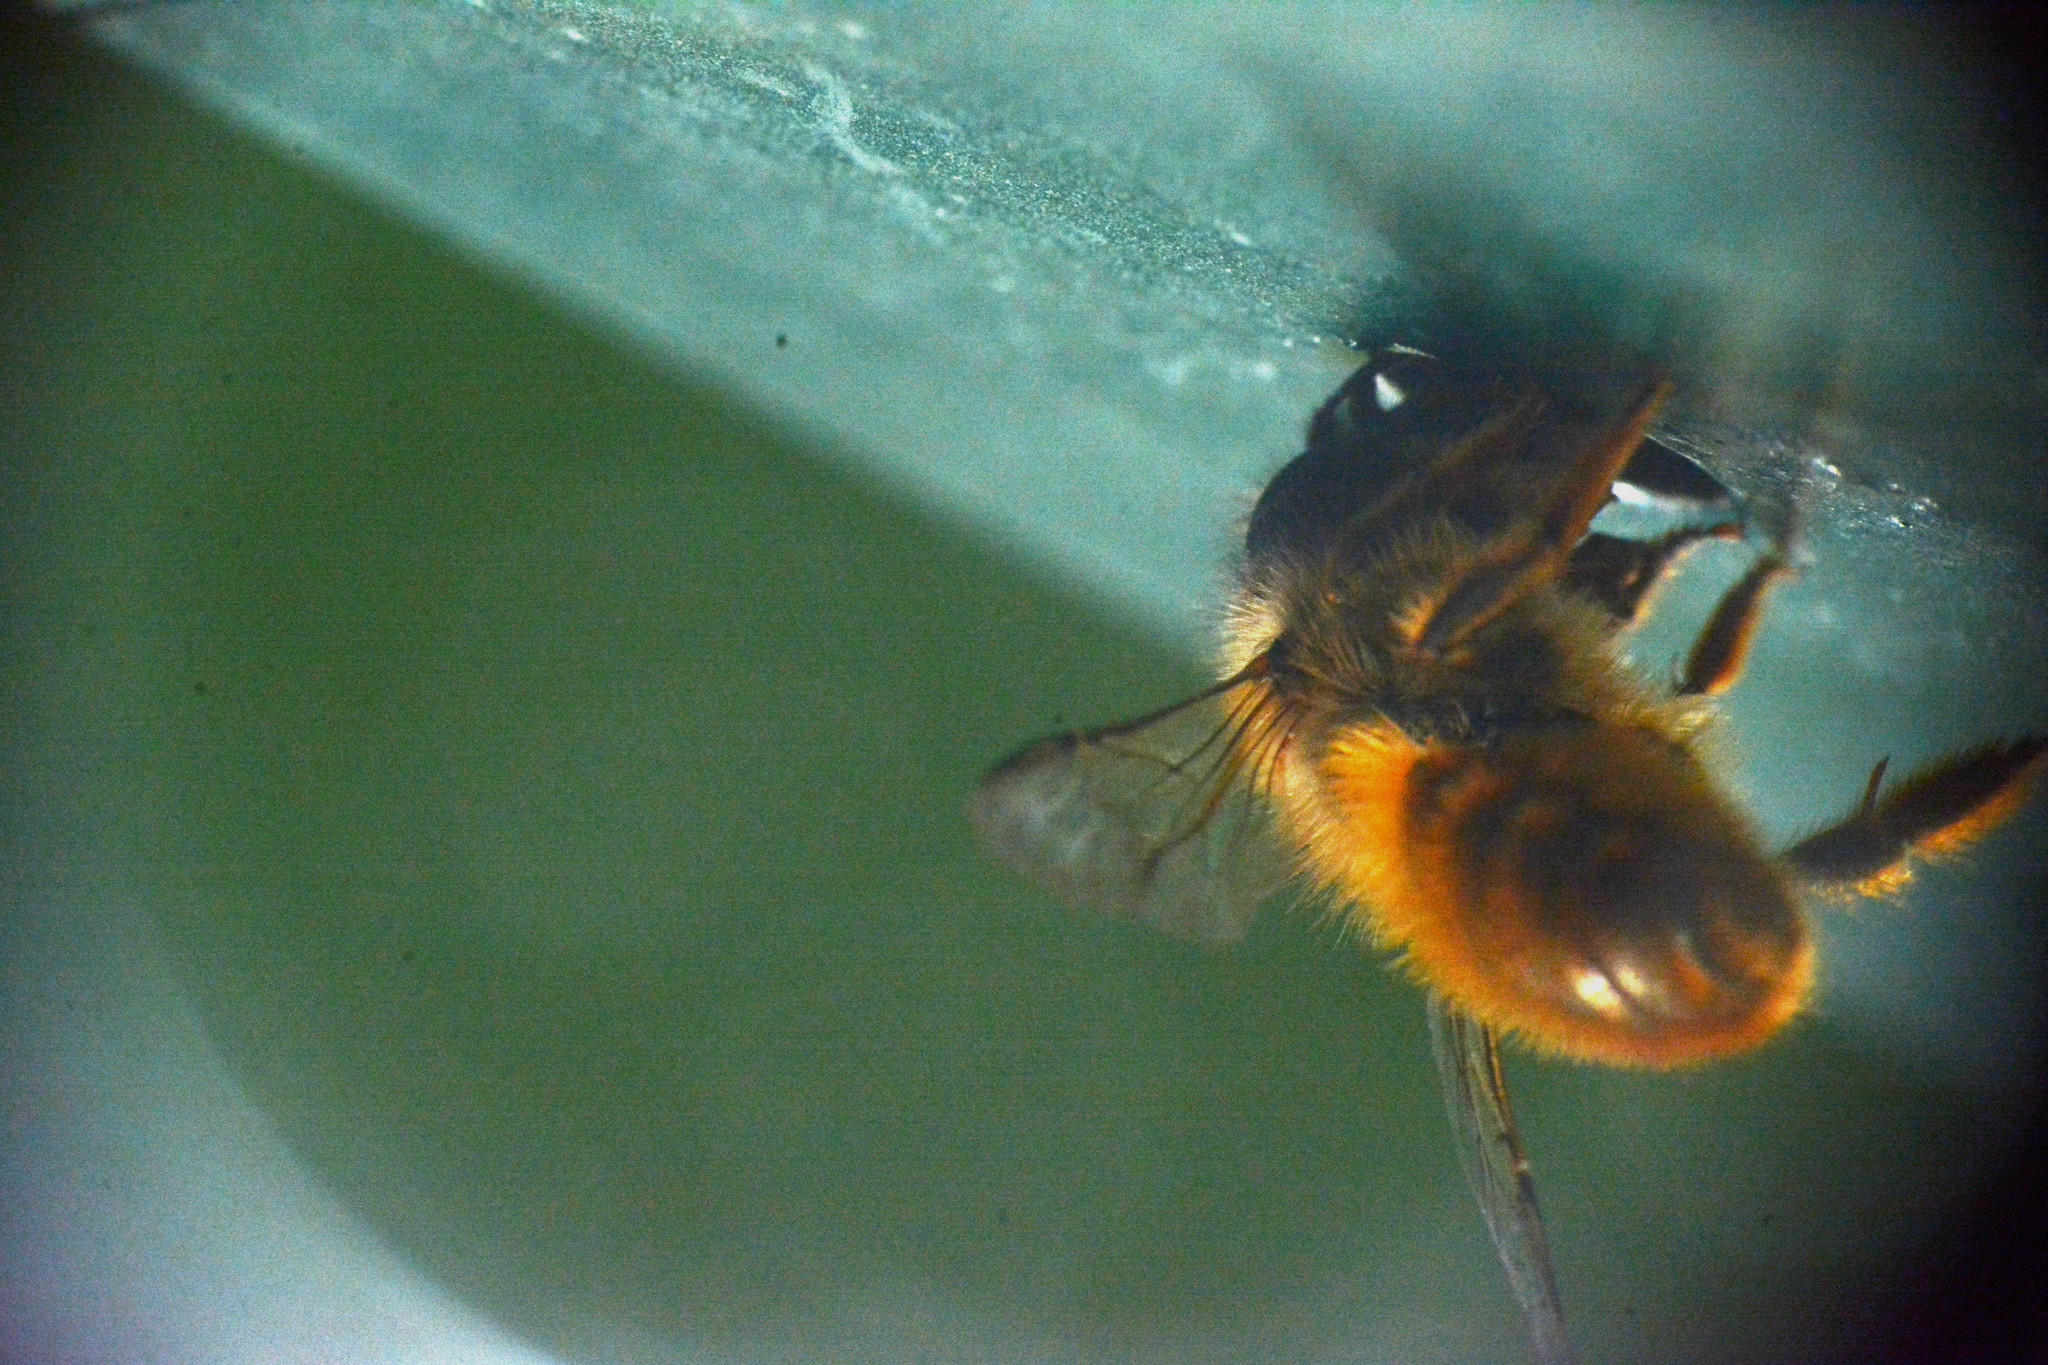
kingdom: Animalia
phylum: Arthropoda
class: Insecta
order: Hymenoptera
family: Megachilidae
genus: Osmia
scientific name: Osmia bicornis
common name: Red mason bee
